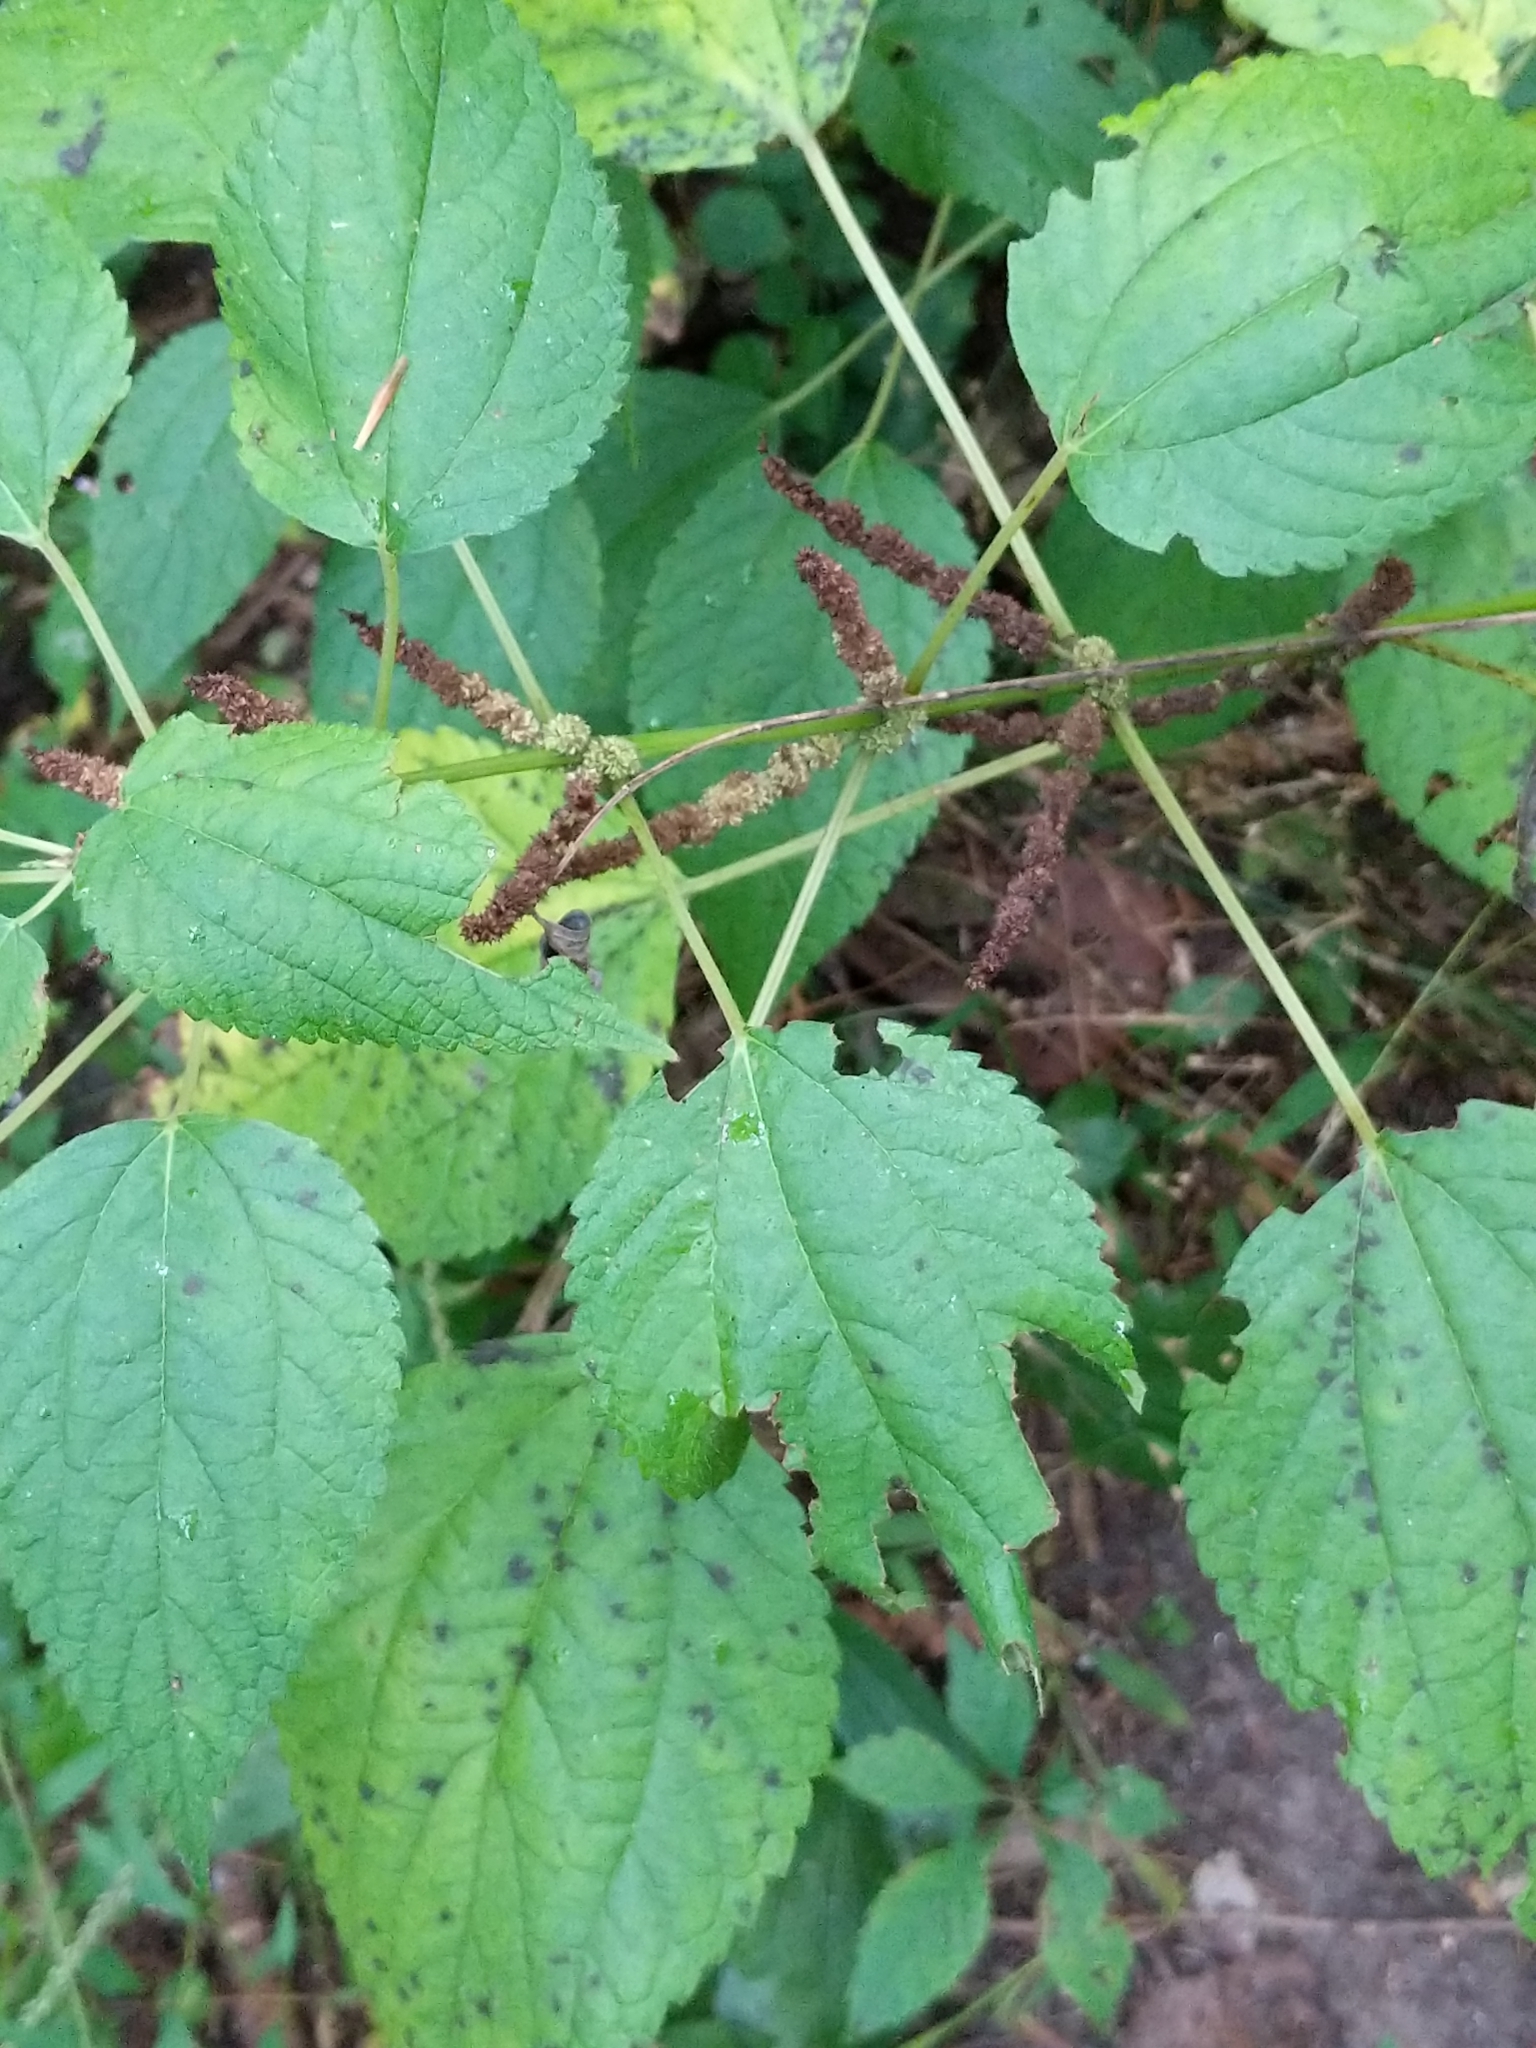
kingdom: Plantae
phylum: Tracheophyta
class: Magnoliopsida
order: Rosales
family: Urticaceae
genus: Boehmeria
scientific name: Boehmeria cylindrica
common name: Bog-hemp
